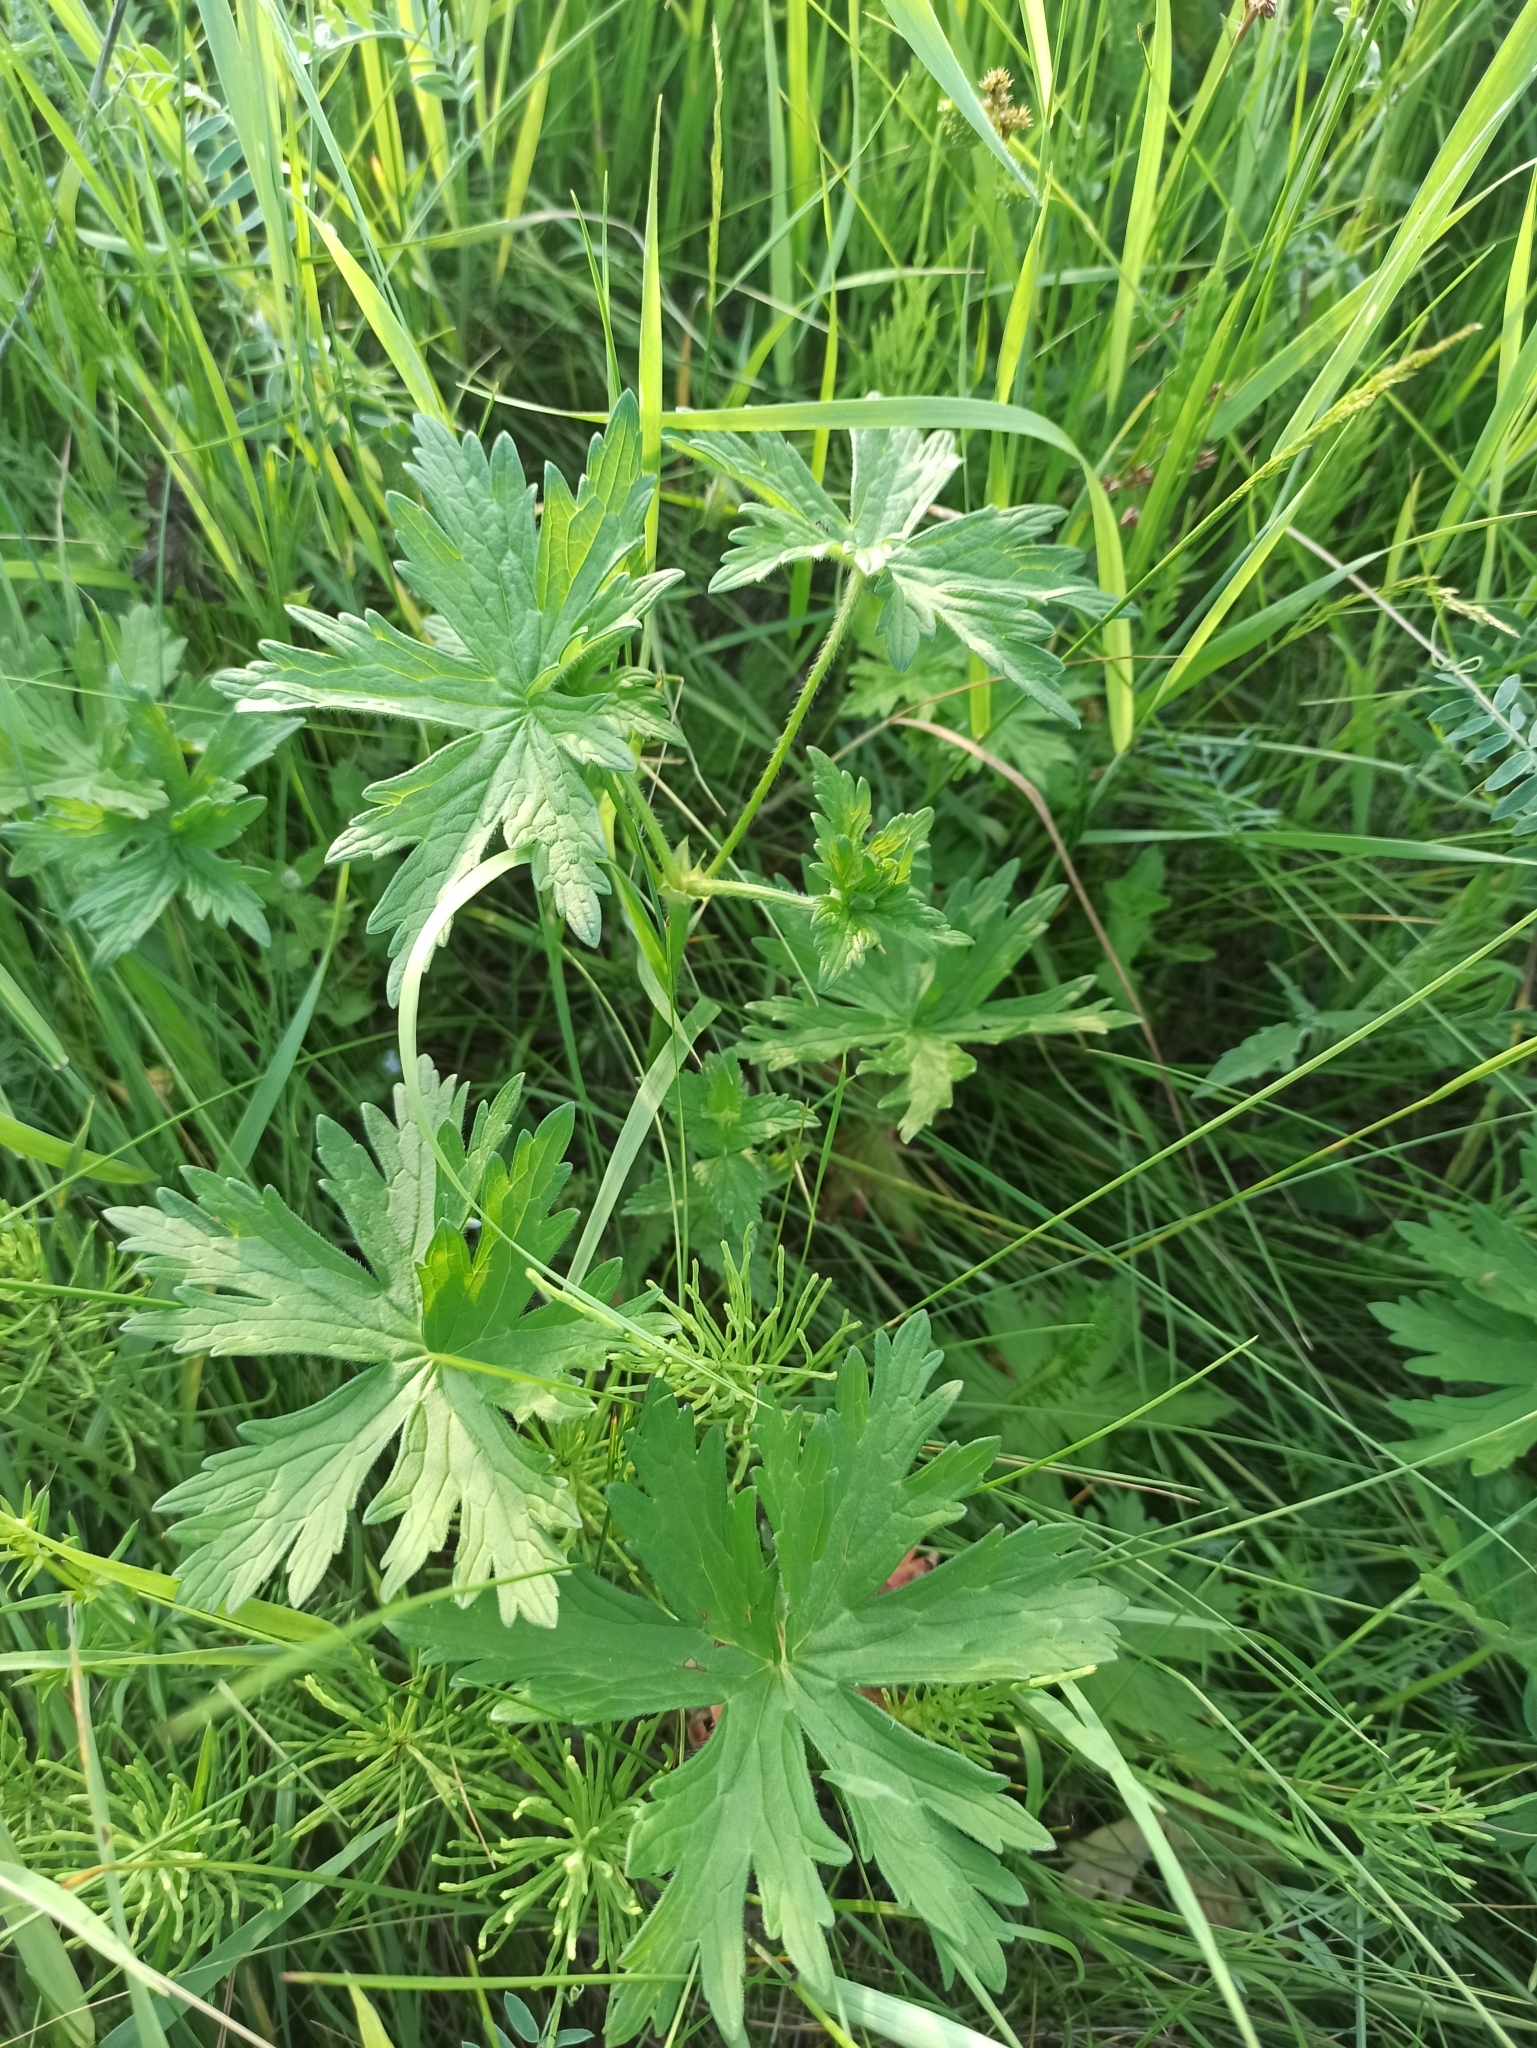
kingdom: Plantae
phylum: Tracheophyta
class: Magnoliopsida
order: Geraniales
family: Geraniaceae
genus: Geranium
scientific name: Geranium palustre
